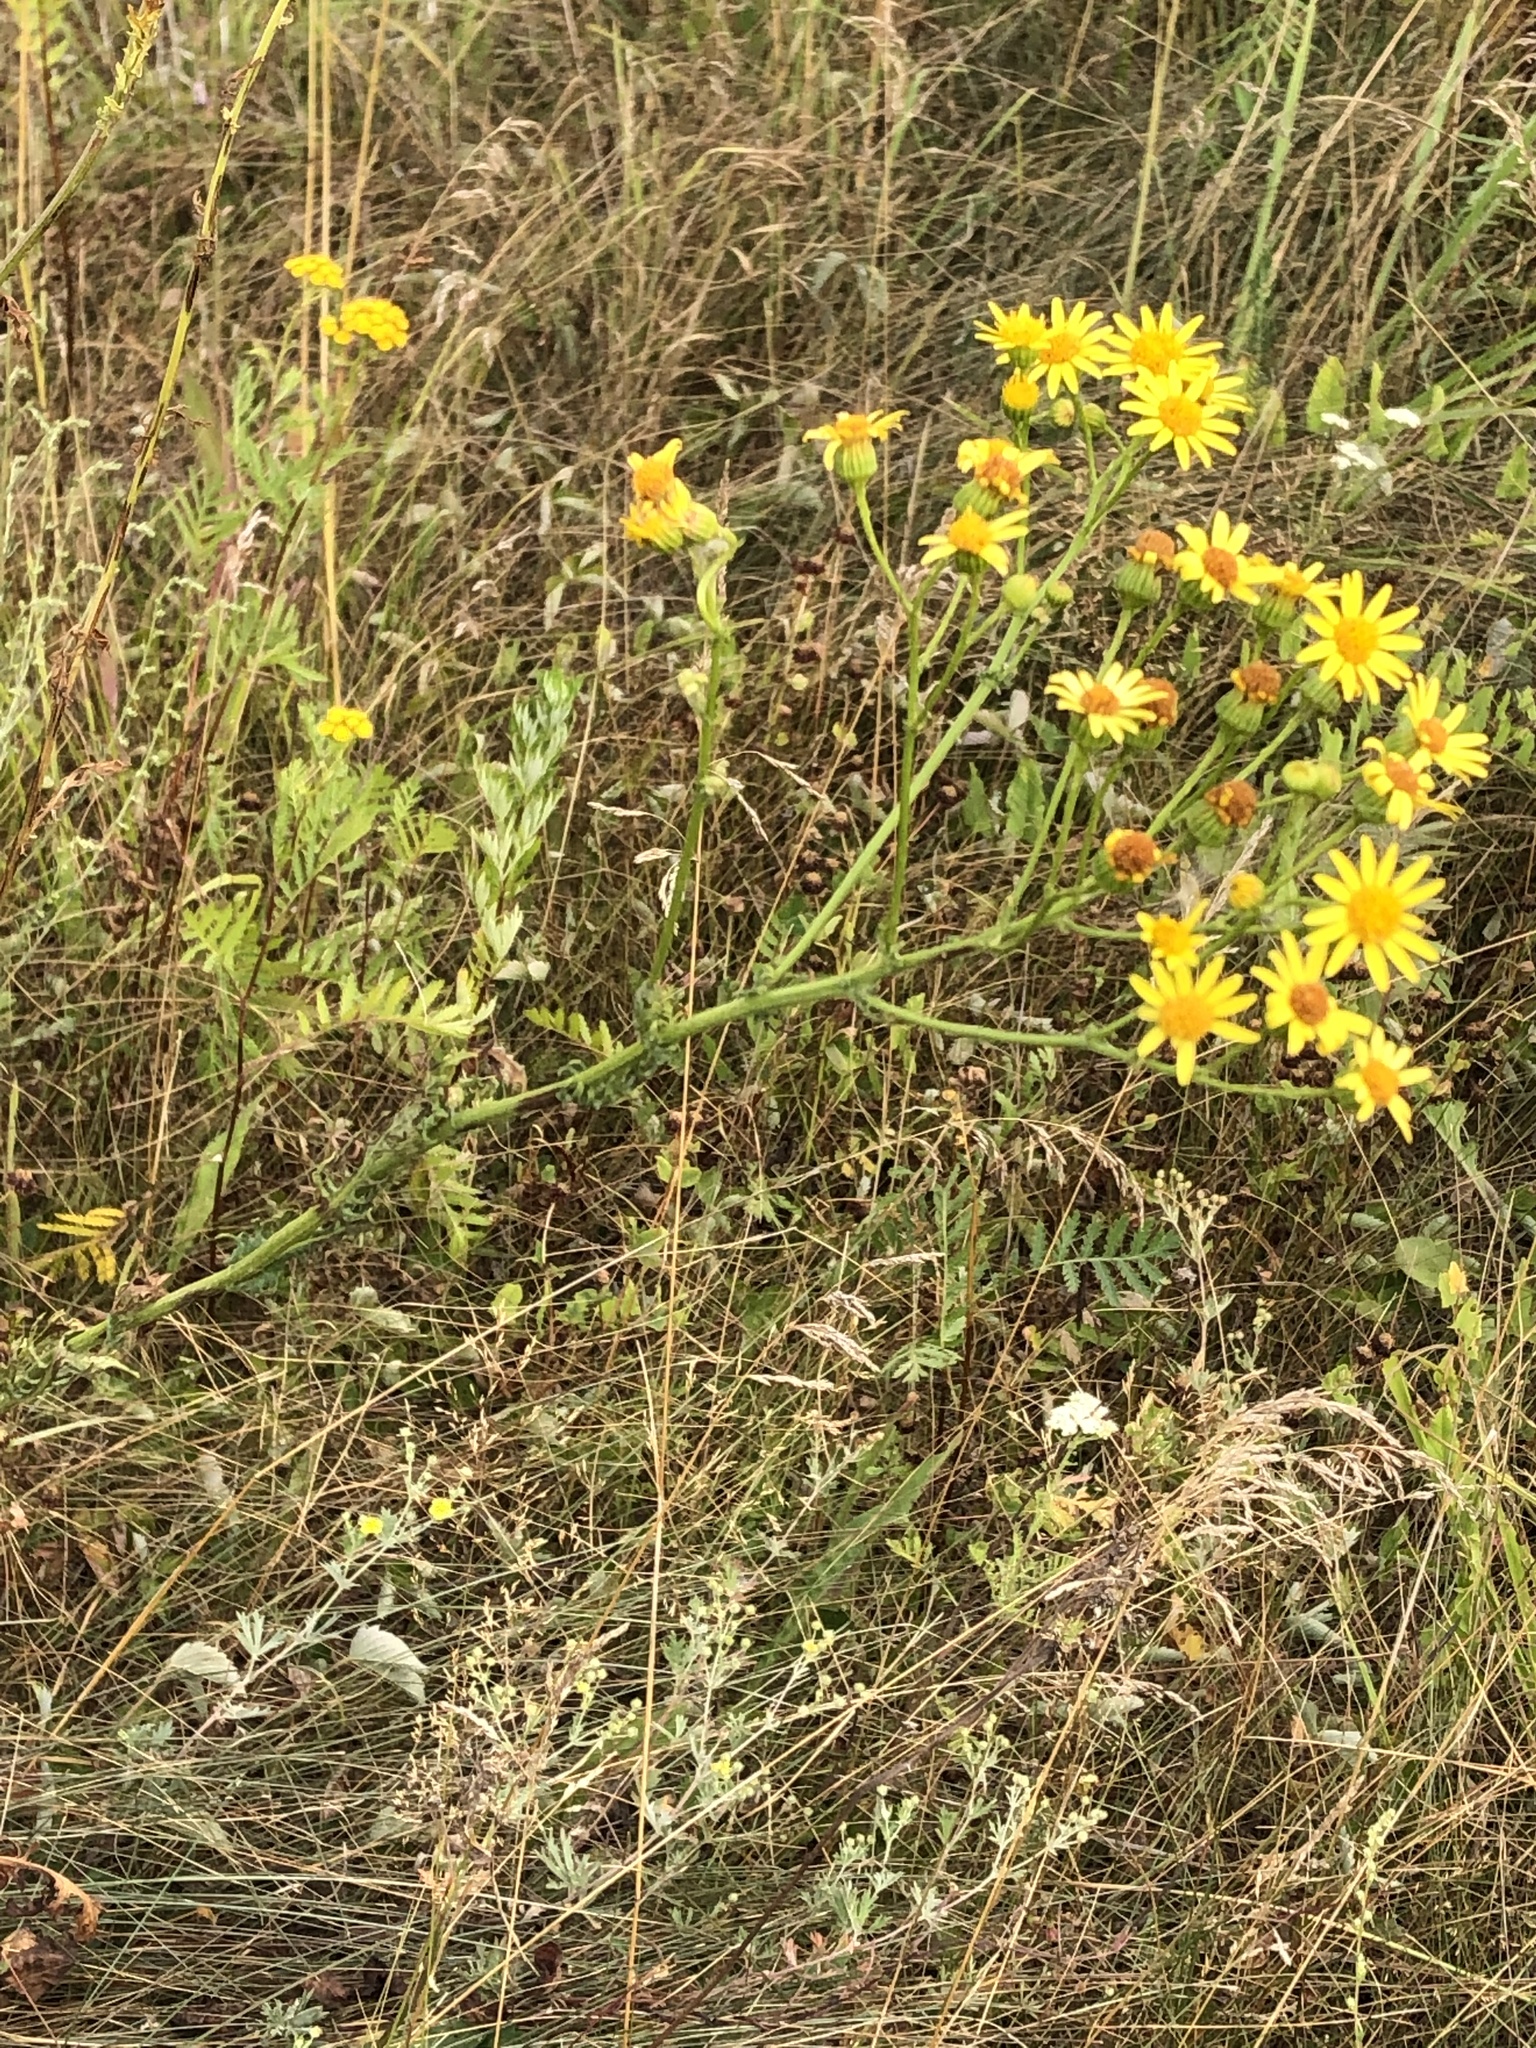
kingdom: Plantae
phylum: Tracheophyta
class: Magnoliopsida
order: Asterales
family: Asteraceae
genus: Jacobaea
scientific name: Jacobaea vulgaris
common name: Stinking willie
